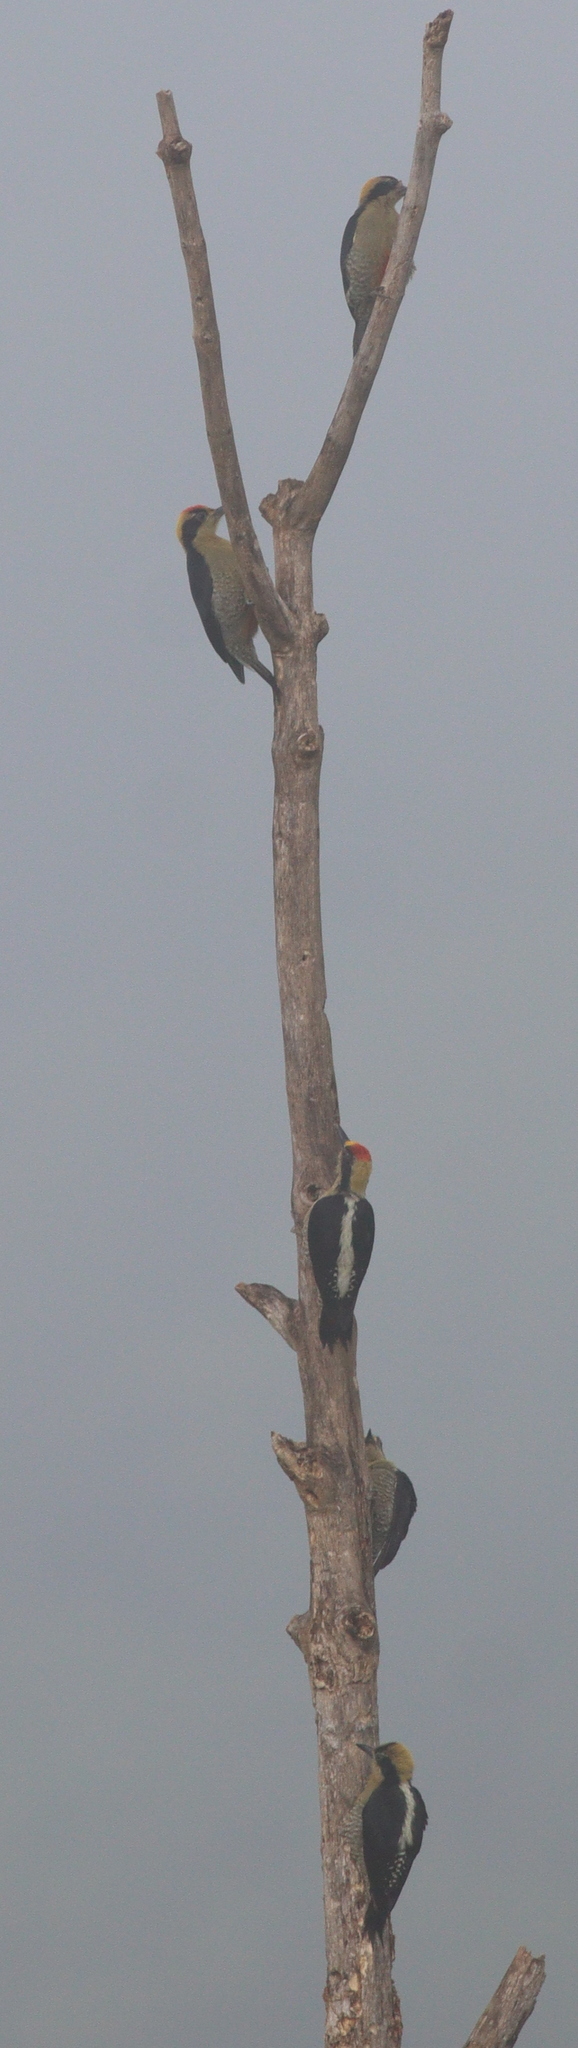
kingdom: Animalia
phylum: Chordata
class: Aves
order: Piciformes
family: Picidae
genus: Melanerpes
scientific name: Melanerpes chrysauchen
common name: Golden-naped woodpecker
